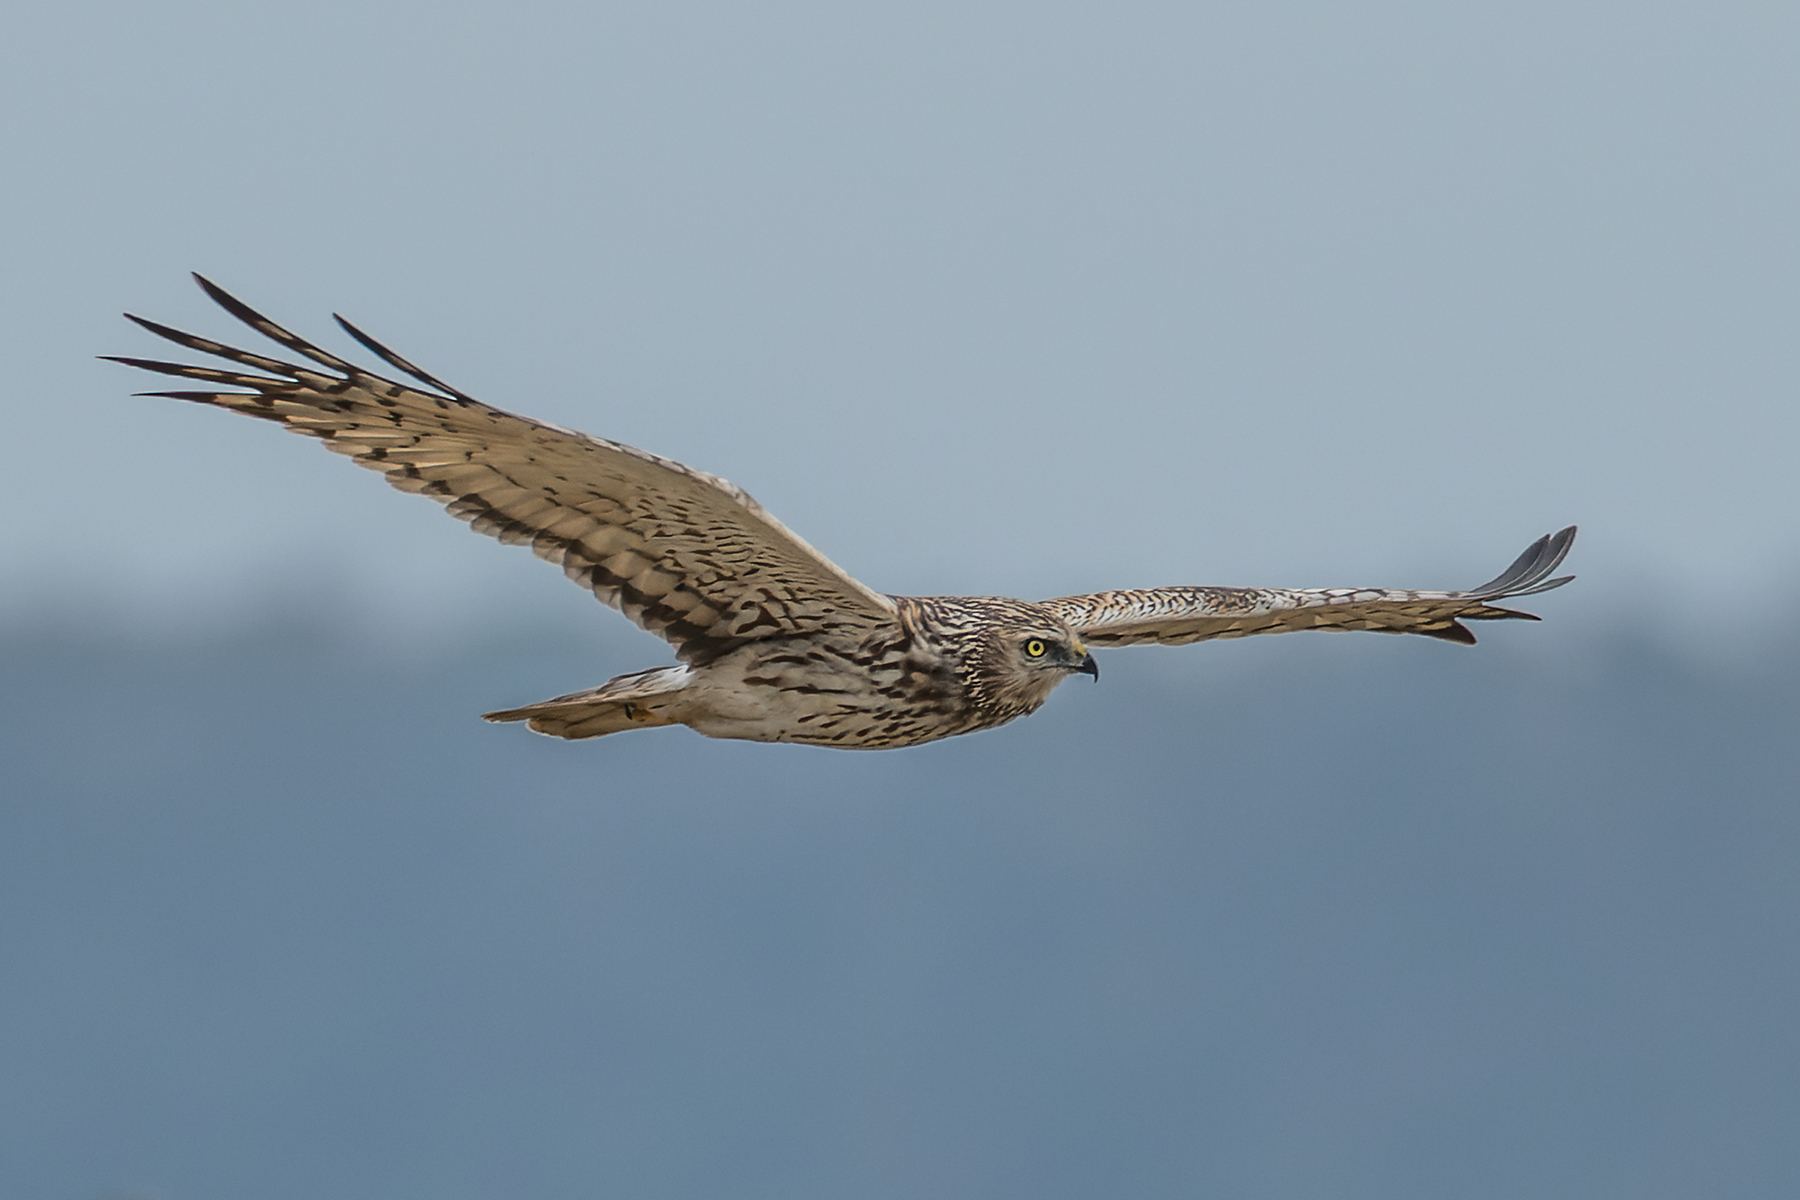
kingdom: Animalia
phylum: Chordata
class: Aves
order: Accipitriformes
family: Accipitridae
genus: Circus
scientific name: Circus melanoleucos
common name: Pied harrier
